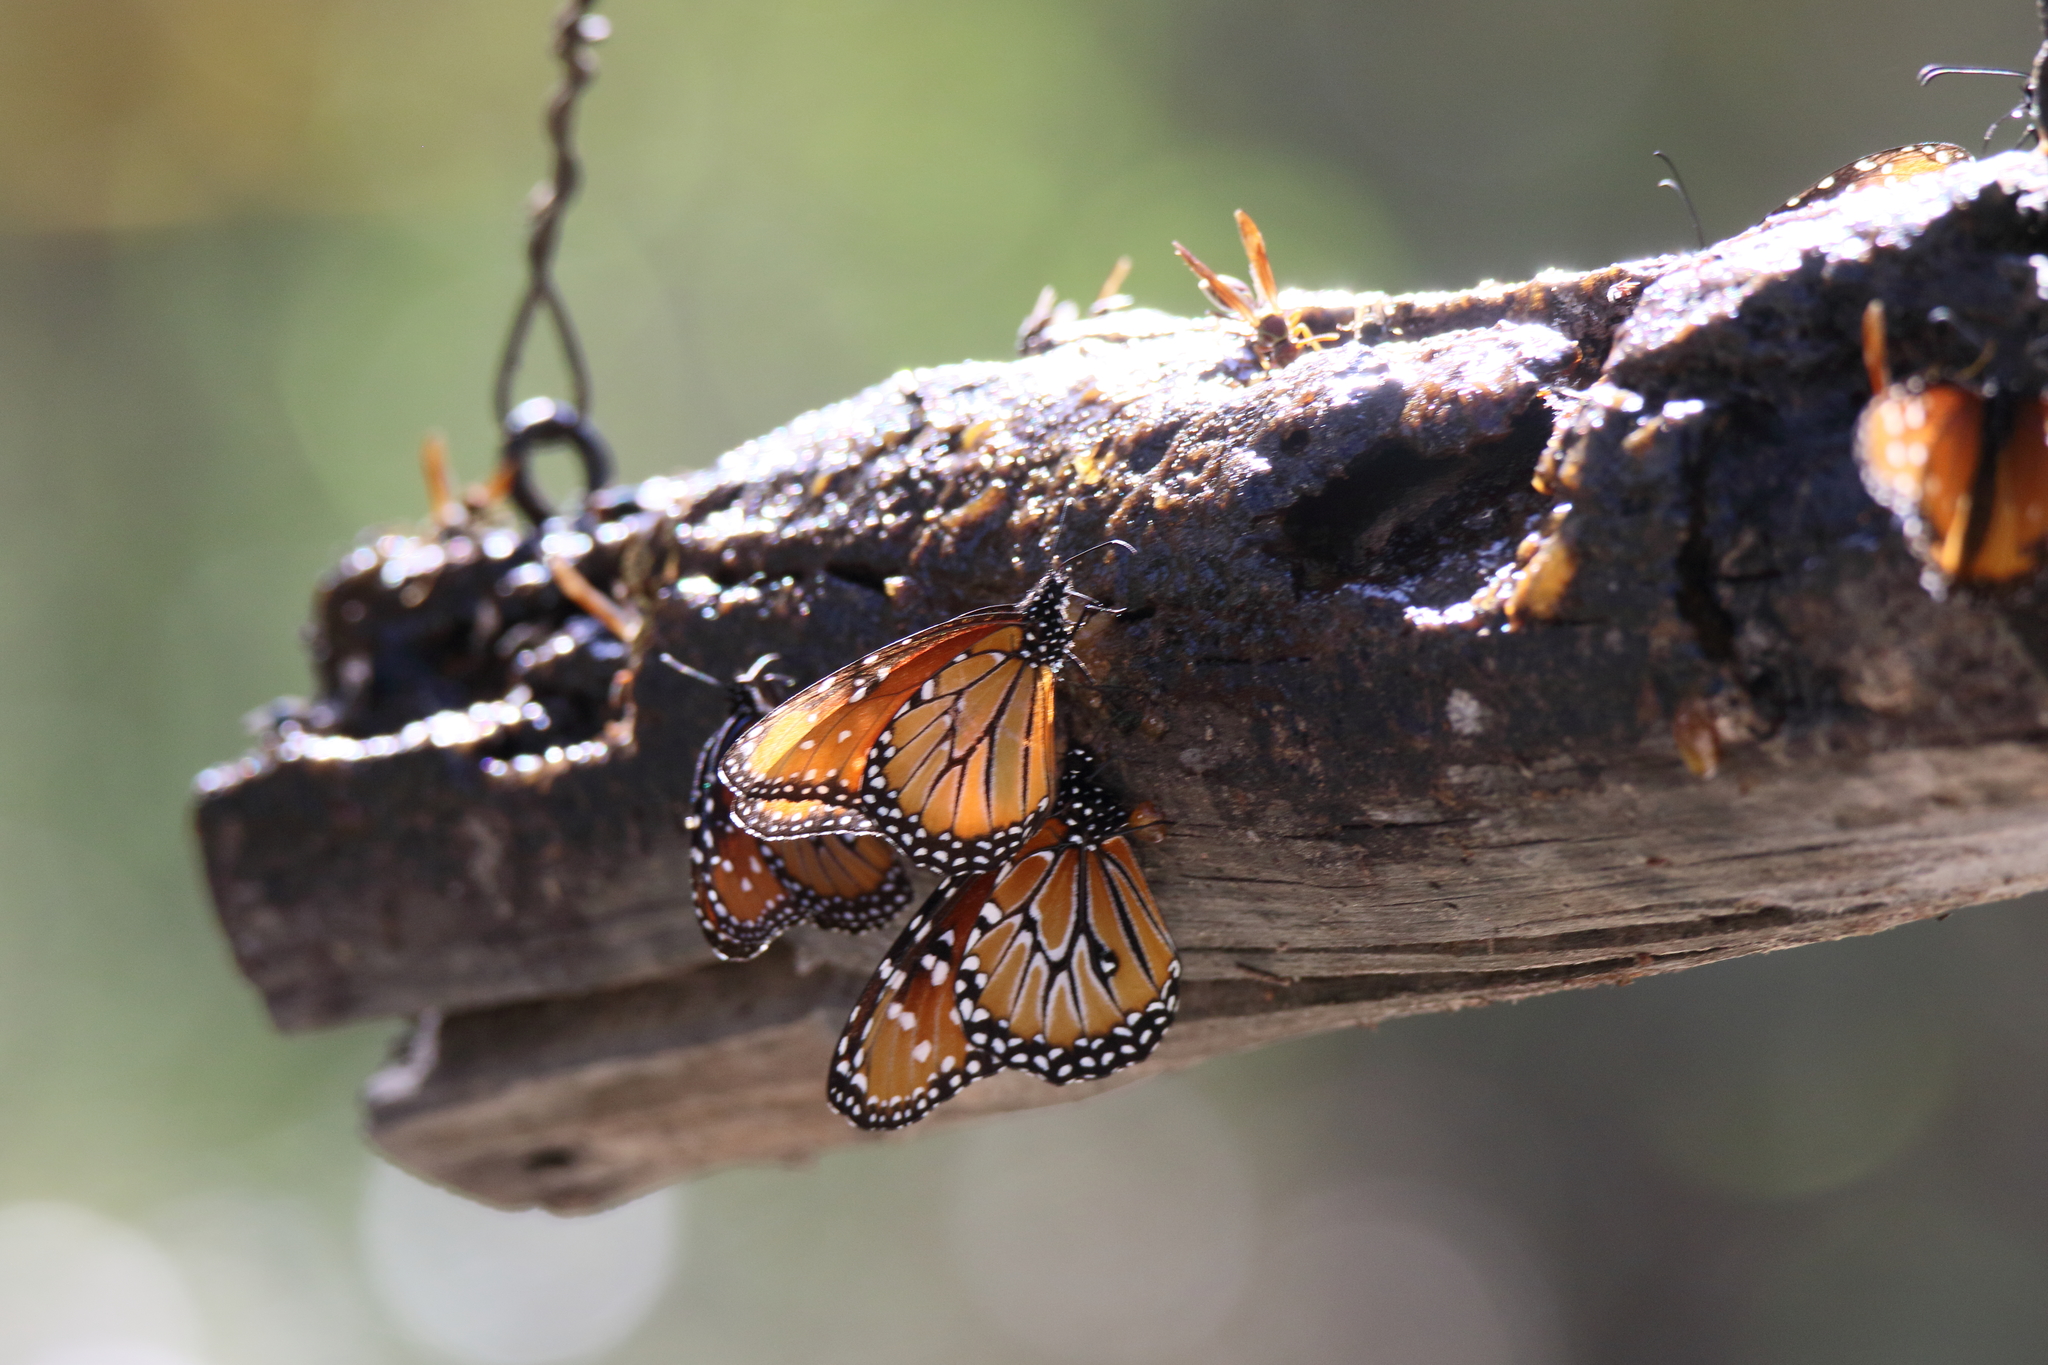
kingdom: Animalia
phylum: Arthropoda
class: Insecta
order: Lepidoptera
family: Nymphalidae
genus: Danaus
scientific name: Danaus gilippus
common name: Queen
